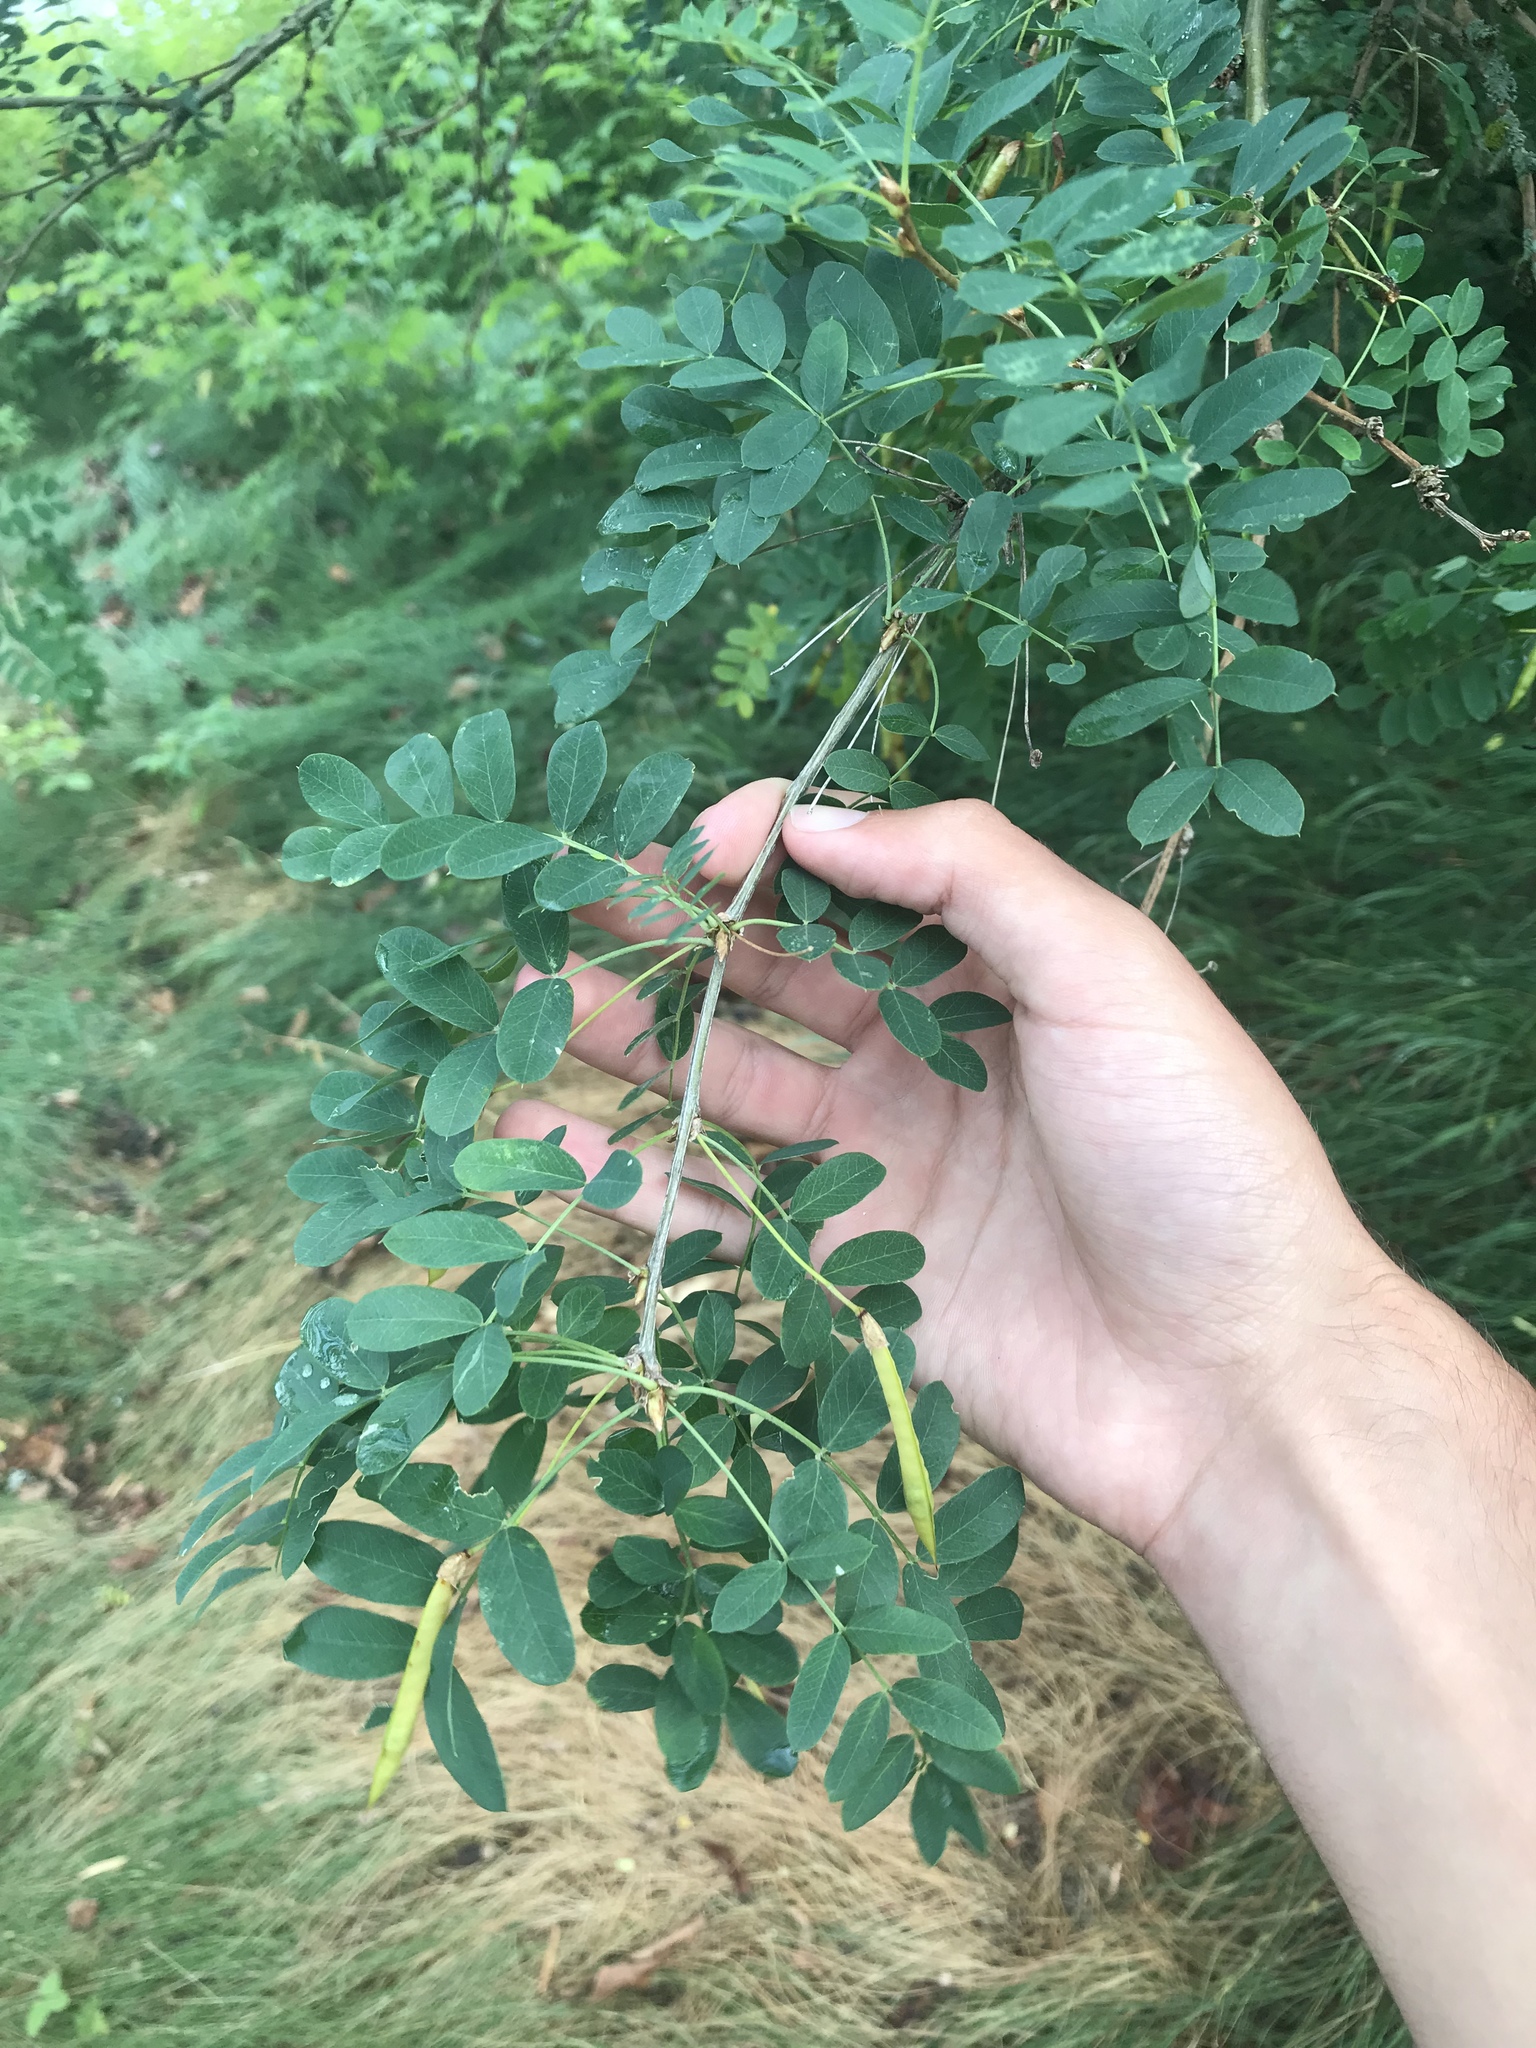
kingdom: Plantae
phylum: Tracheophyta
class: Magnoliopsida
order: Fabales
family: Fabaceae
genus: Caragana
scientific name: Caragana arborescens
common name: Siberian peashrub
